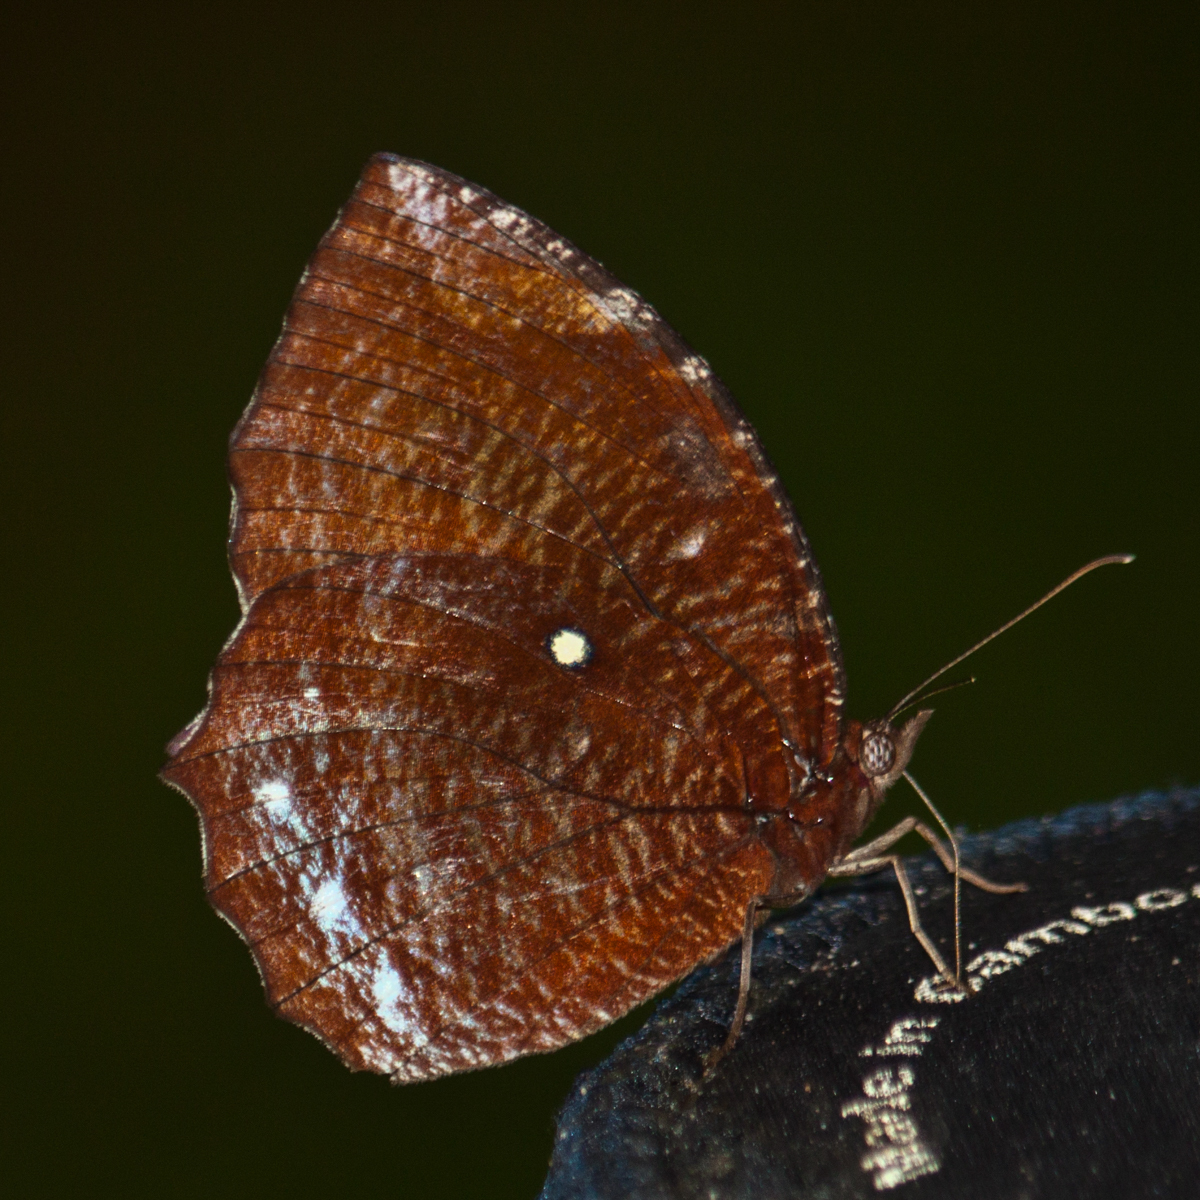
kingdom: Animalia
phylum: Arthropoda
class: Insecta
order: Lepidoptera
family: Nymphalidae
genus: Elymnias
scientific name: Elymnias hypermnestra
